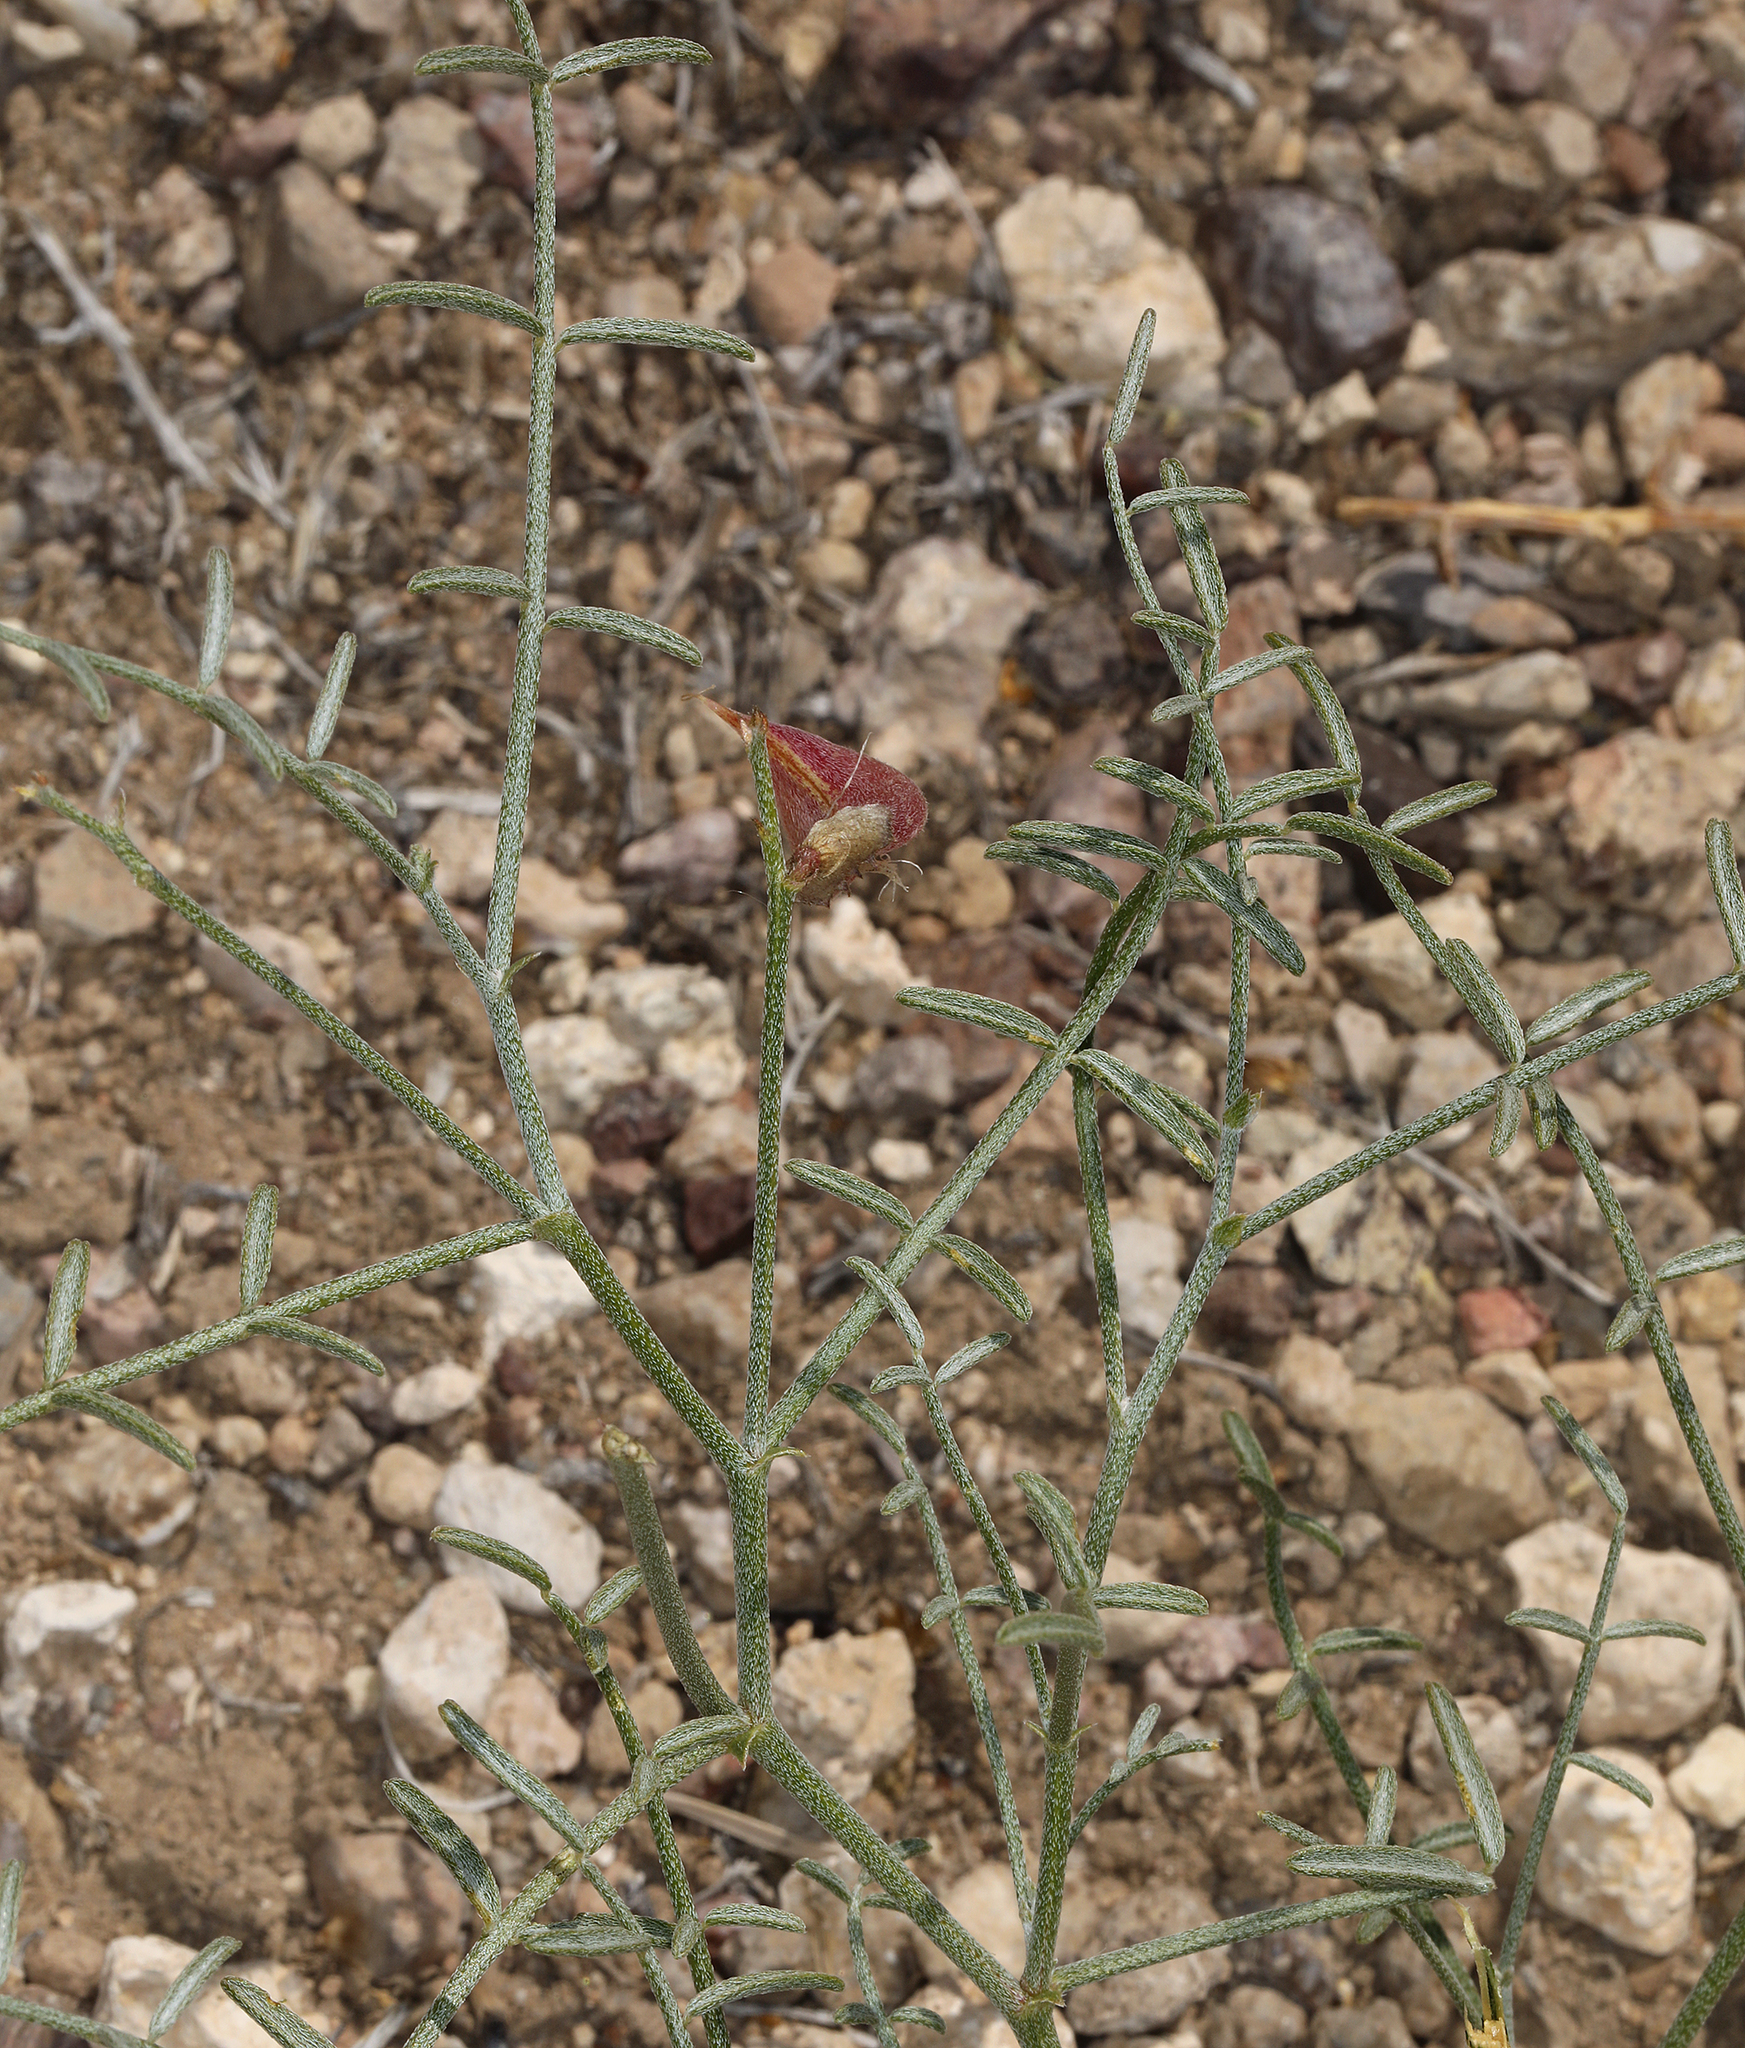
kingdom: Plantae
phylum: Tracheophyta
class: Magnoliopsida
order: Fabales
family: Fabaceae
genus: Astragalus
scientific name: Astragalus casei
